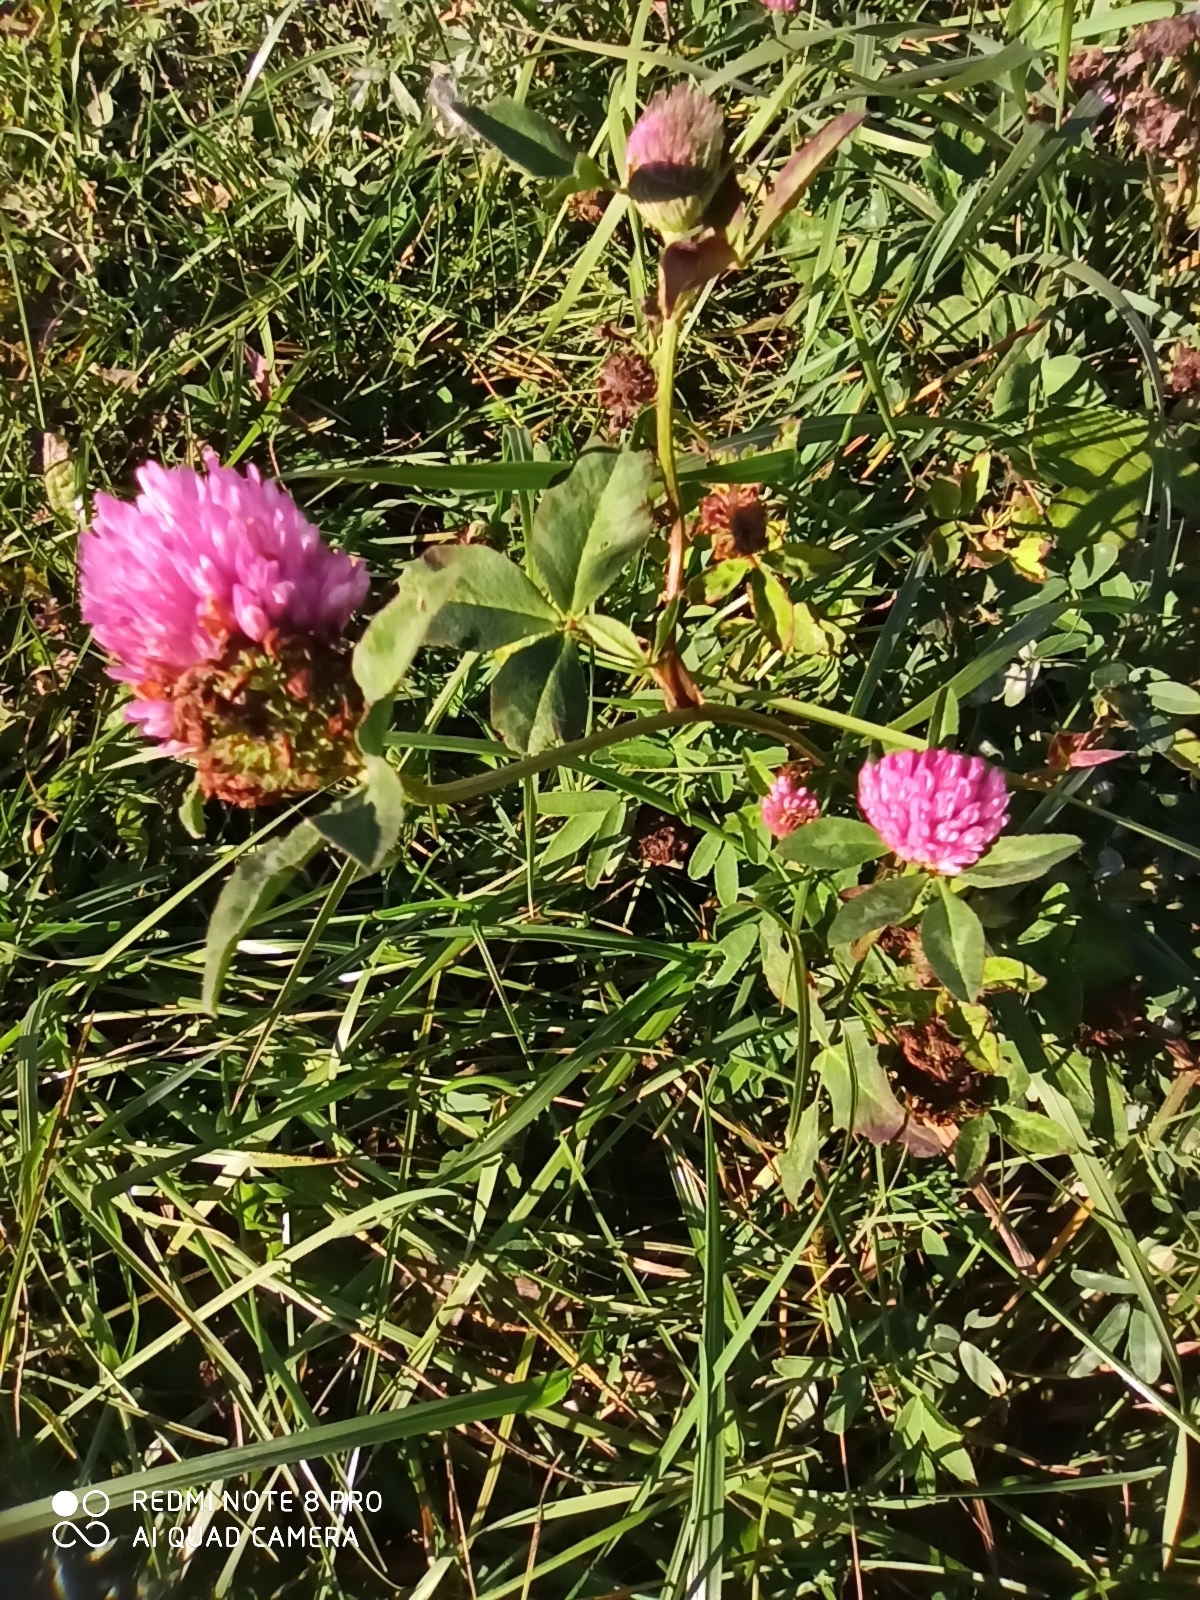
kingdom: Plantae
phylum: Tracheophyta
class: Magnoliopsida
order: Fabales
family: Fabaceae
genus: Trifolium
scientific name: Trifolium pratense
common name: Red clover
